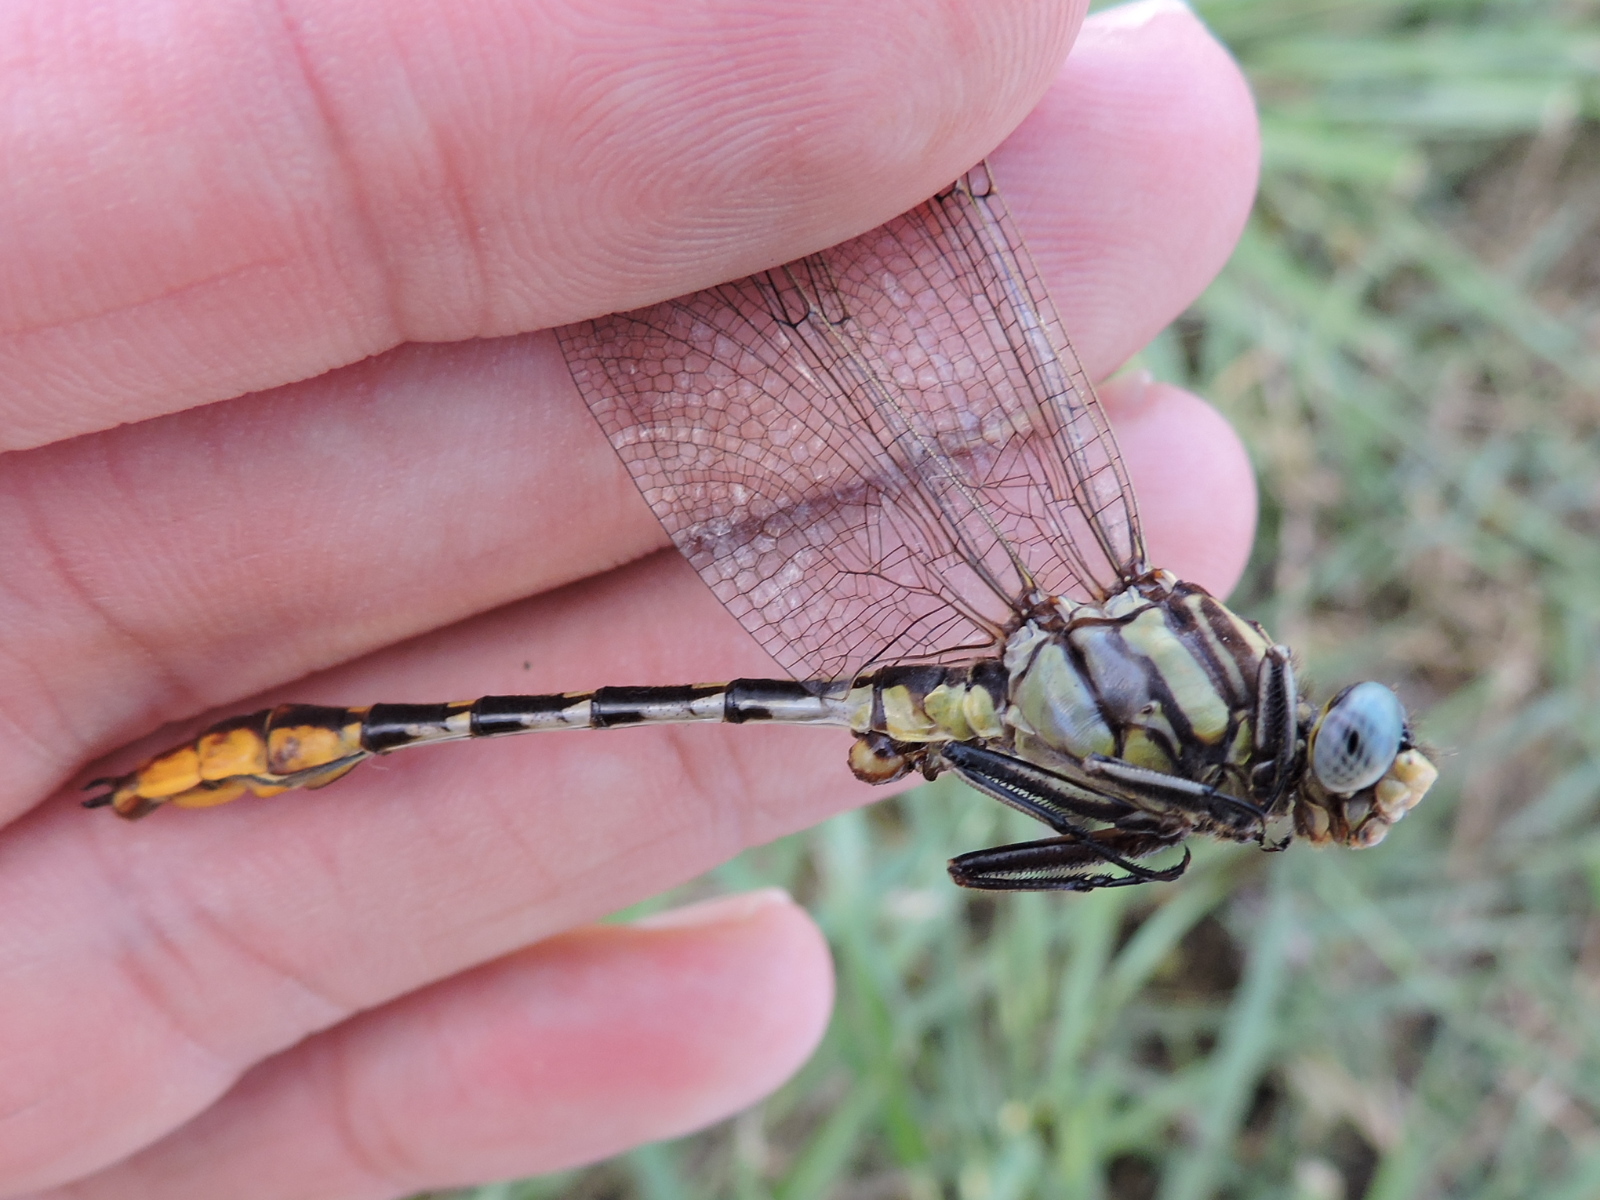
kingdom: Animalia
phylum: Arthropoda
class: Insecta
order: Odonata
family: Gomphidae
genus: Phanogomphus
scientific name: Phanogomphus militaris
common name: Sulphur-tipped clubtail
